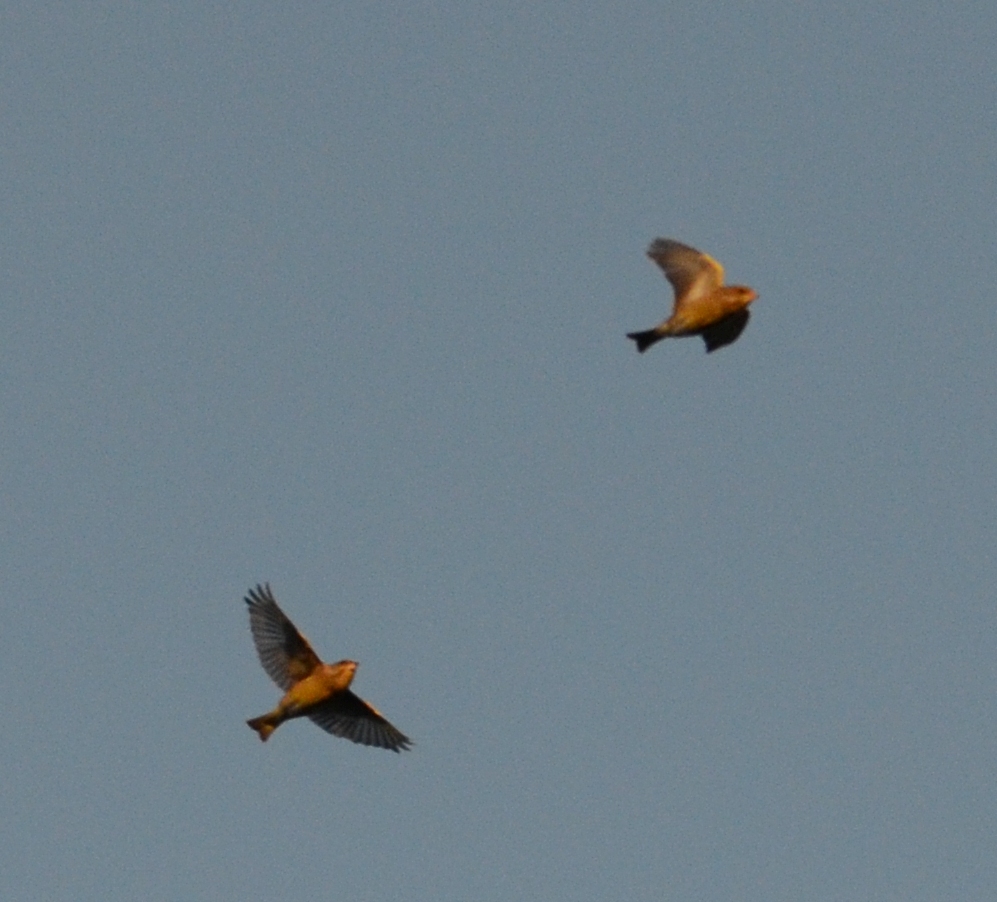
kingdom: Plantae
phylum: Tracheophyta
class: Liliopsida
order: Poales
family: Poaceae
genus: Chloris
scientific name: Chloris chloris
